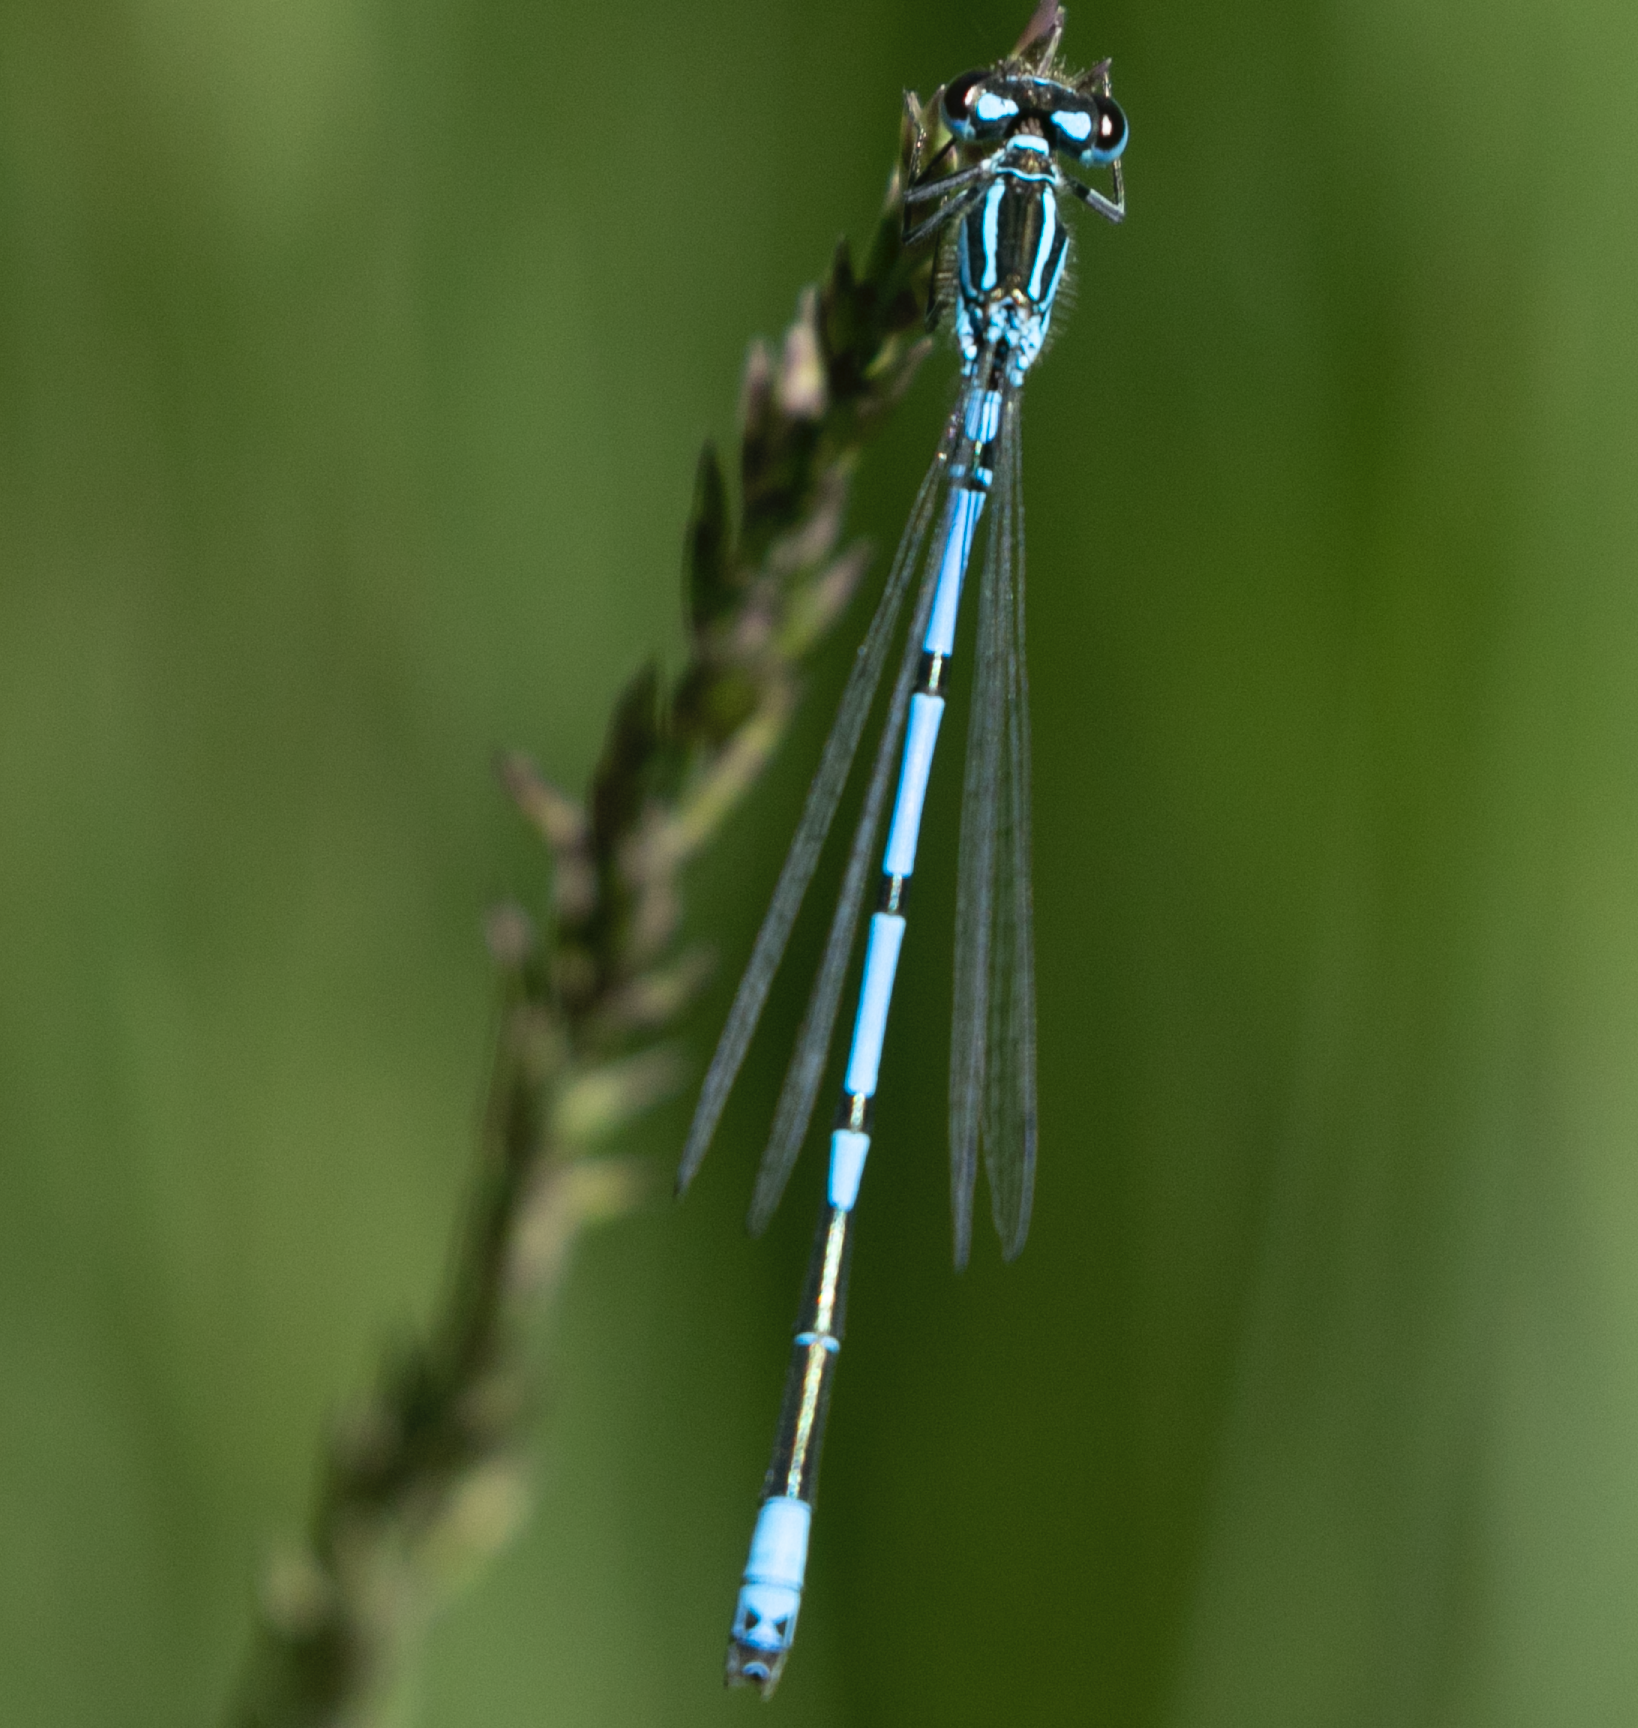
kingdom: Animalia
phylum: Arthropoda
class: Insecta
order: Odonata
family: Coenagrionidae
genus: Coenagrion
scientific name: Coenagrion puella
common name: Azure damselfly
